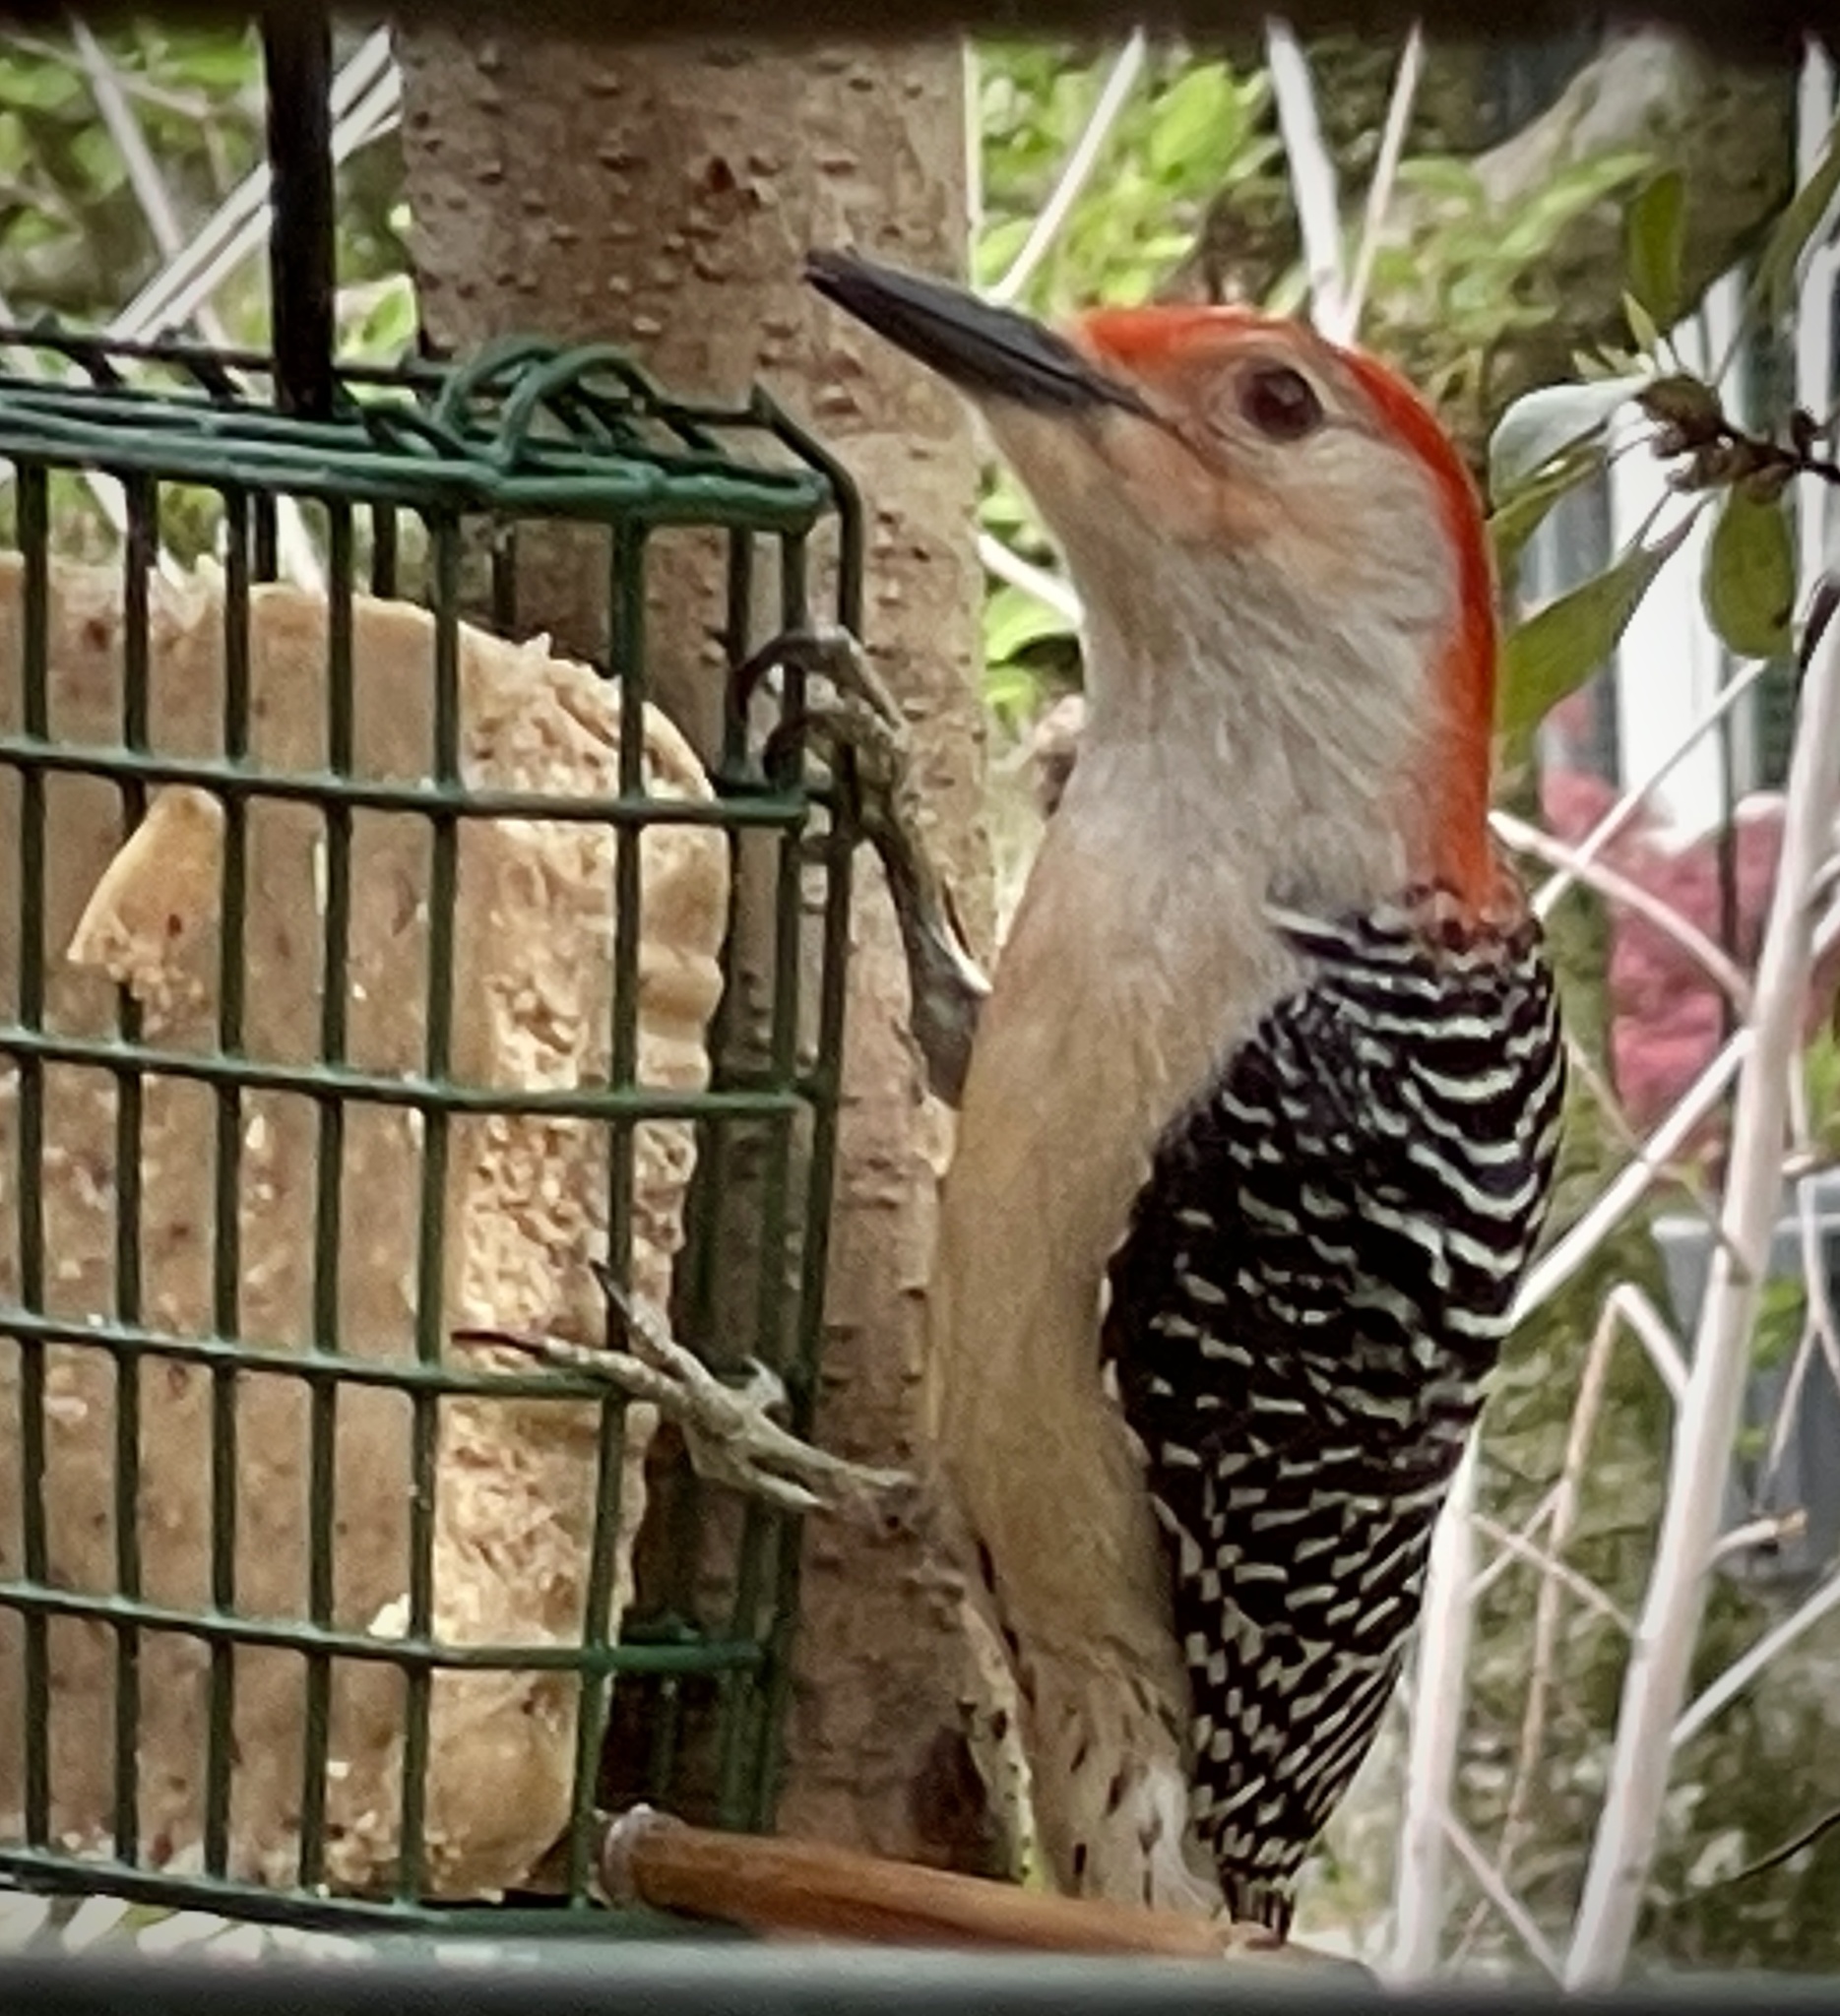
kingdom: Animalia
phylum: Chordata
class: Aves
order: Piciformes
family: Picidae
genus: Melanerpes
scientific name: Melanerpes carolinus
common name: Red-bellied woodpecker
